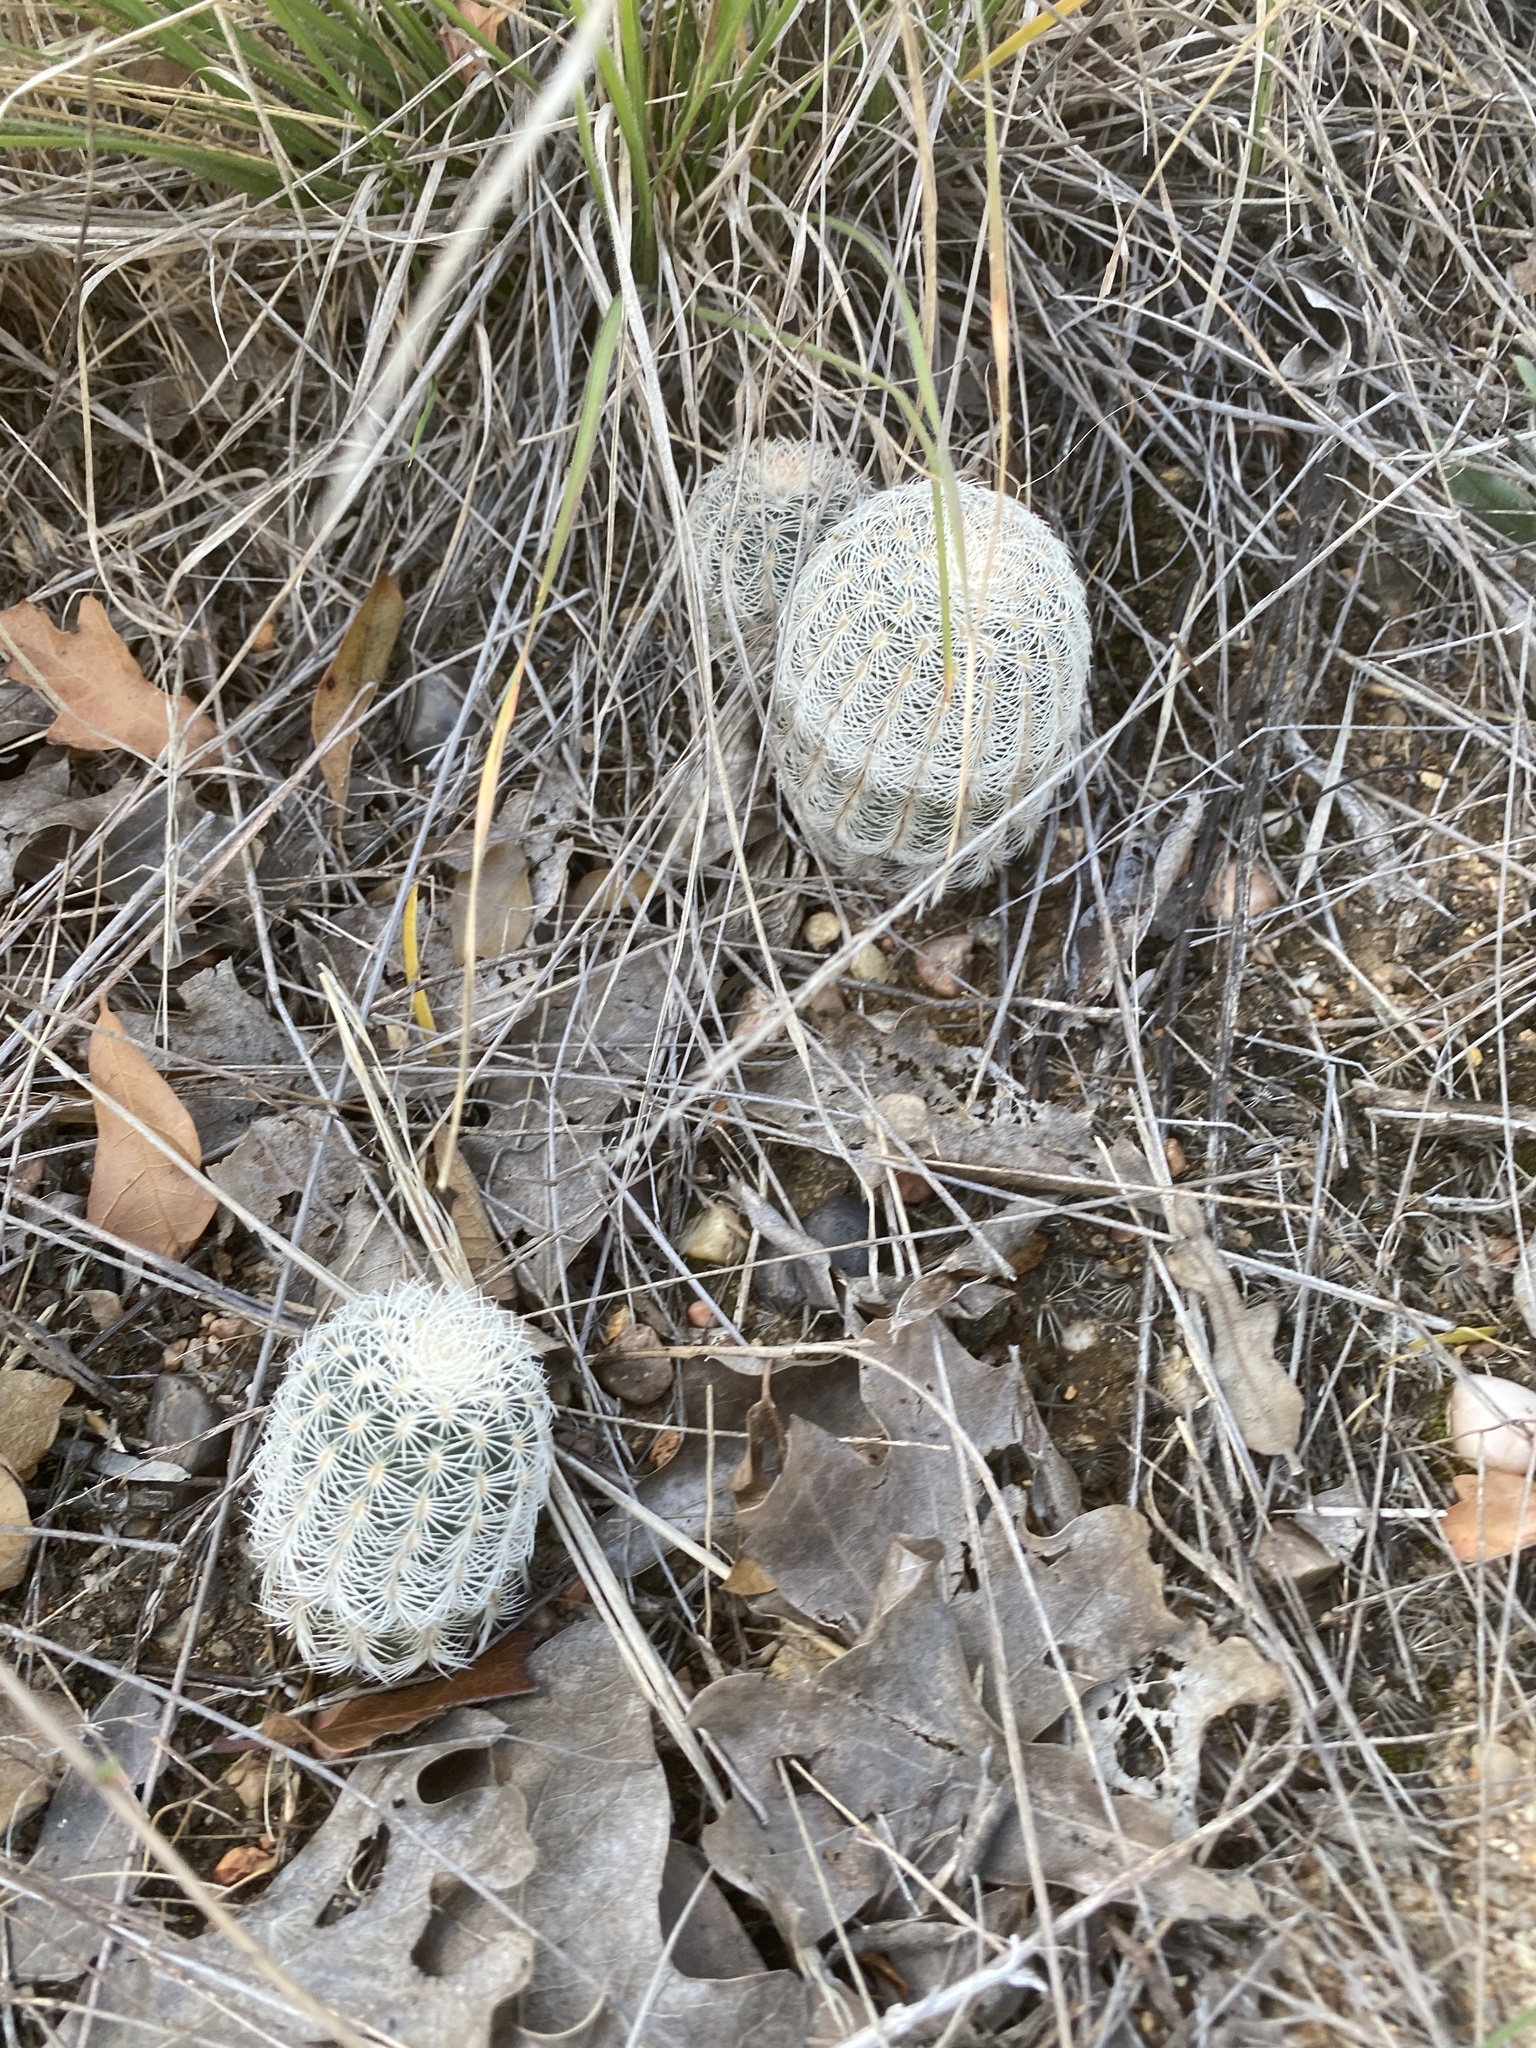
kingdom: Plantae
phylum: Tracheophyta
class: Magnoliopsida
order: Caryophyllales
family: Cactaceae
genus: Echinocereus
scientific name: Echinocereus reichenbachii
